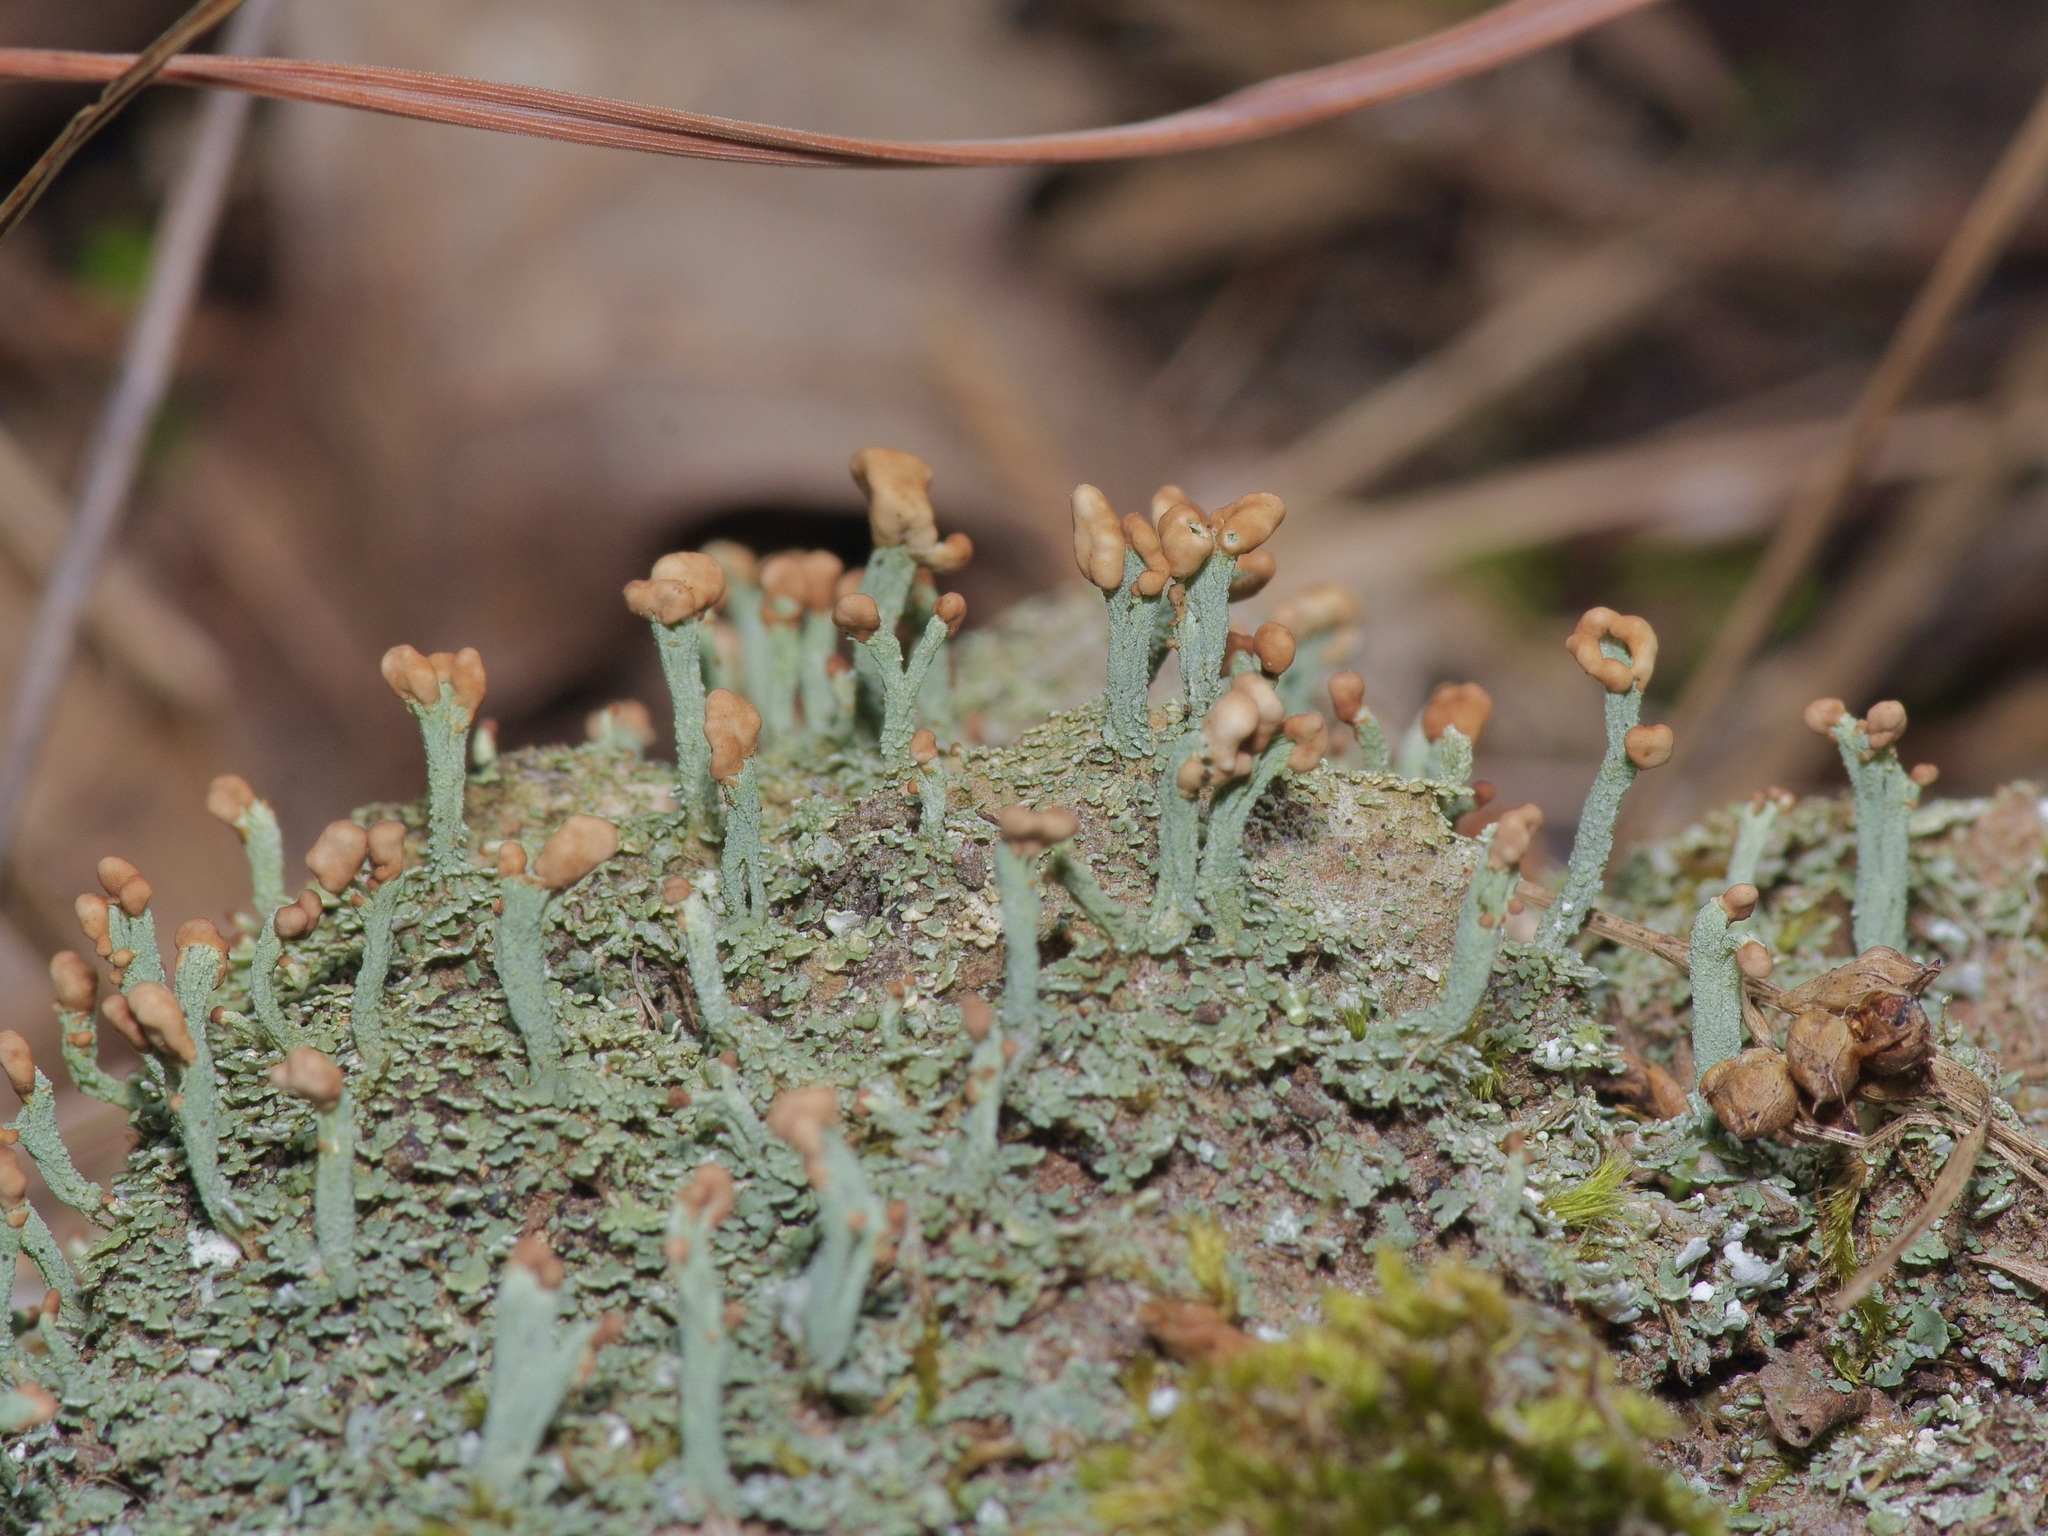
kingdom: Fungi
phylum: Ascomycota
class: Lecanoromycetes
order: Lecanorales
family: Cladoniaceae
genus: Cladonia
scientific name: Cladonia peziziformis
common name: Cup lichen
